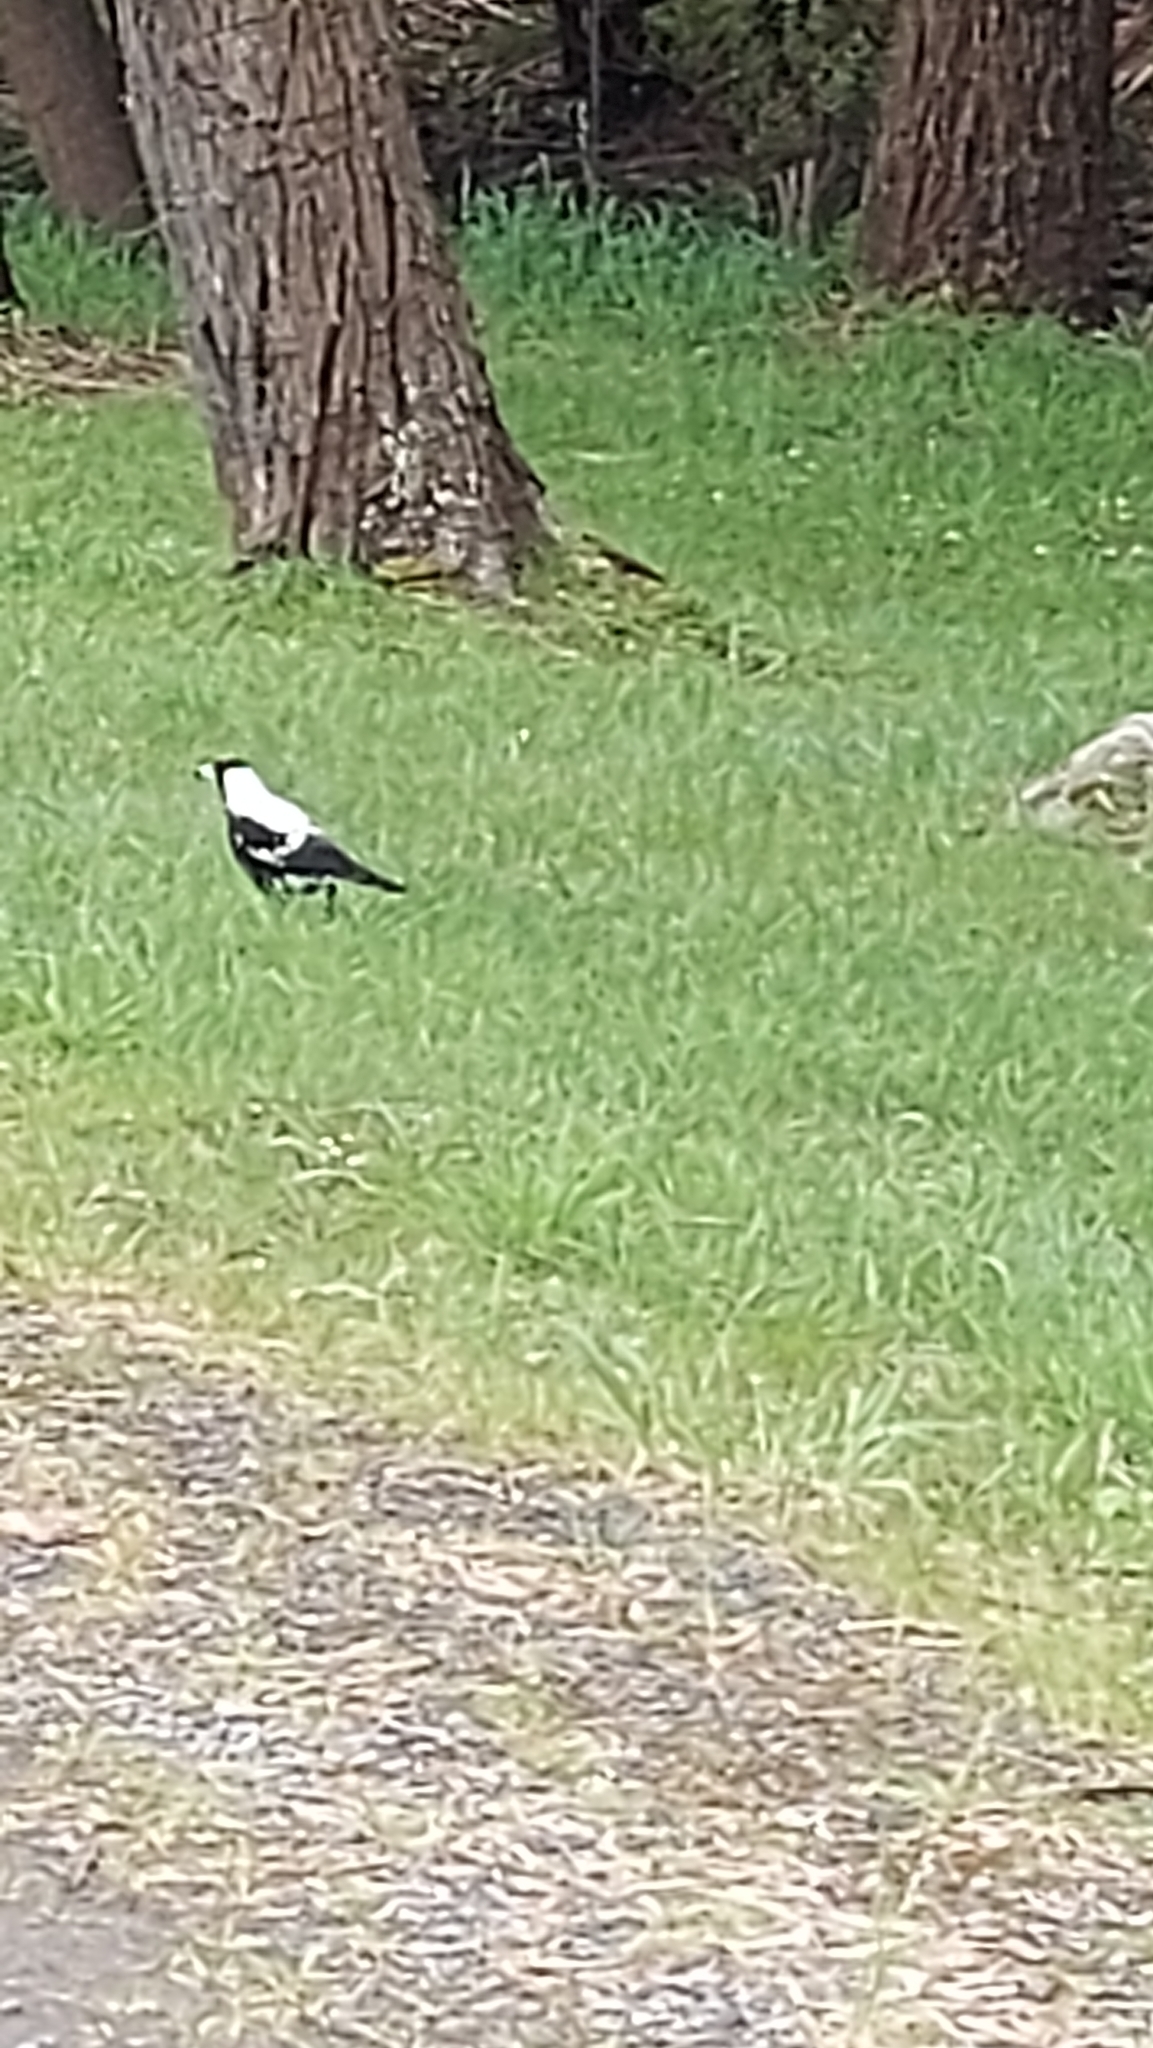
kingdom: Animalia
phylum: Chordata
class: Aves
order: Passeriformes
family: Cracticidae
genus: Gymnorhina
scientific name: Gymnorhina tibicen
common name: Australian magpie
